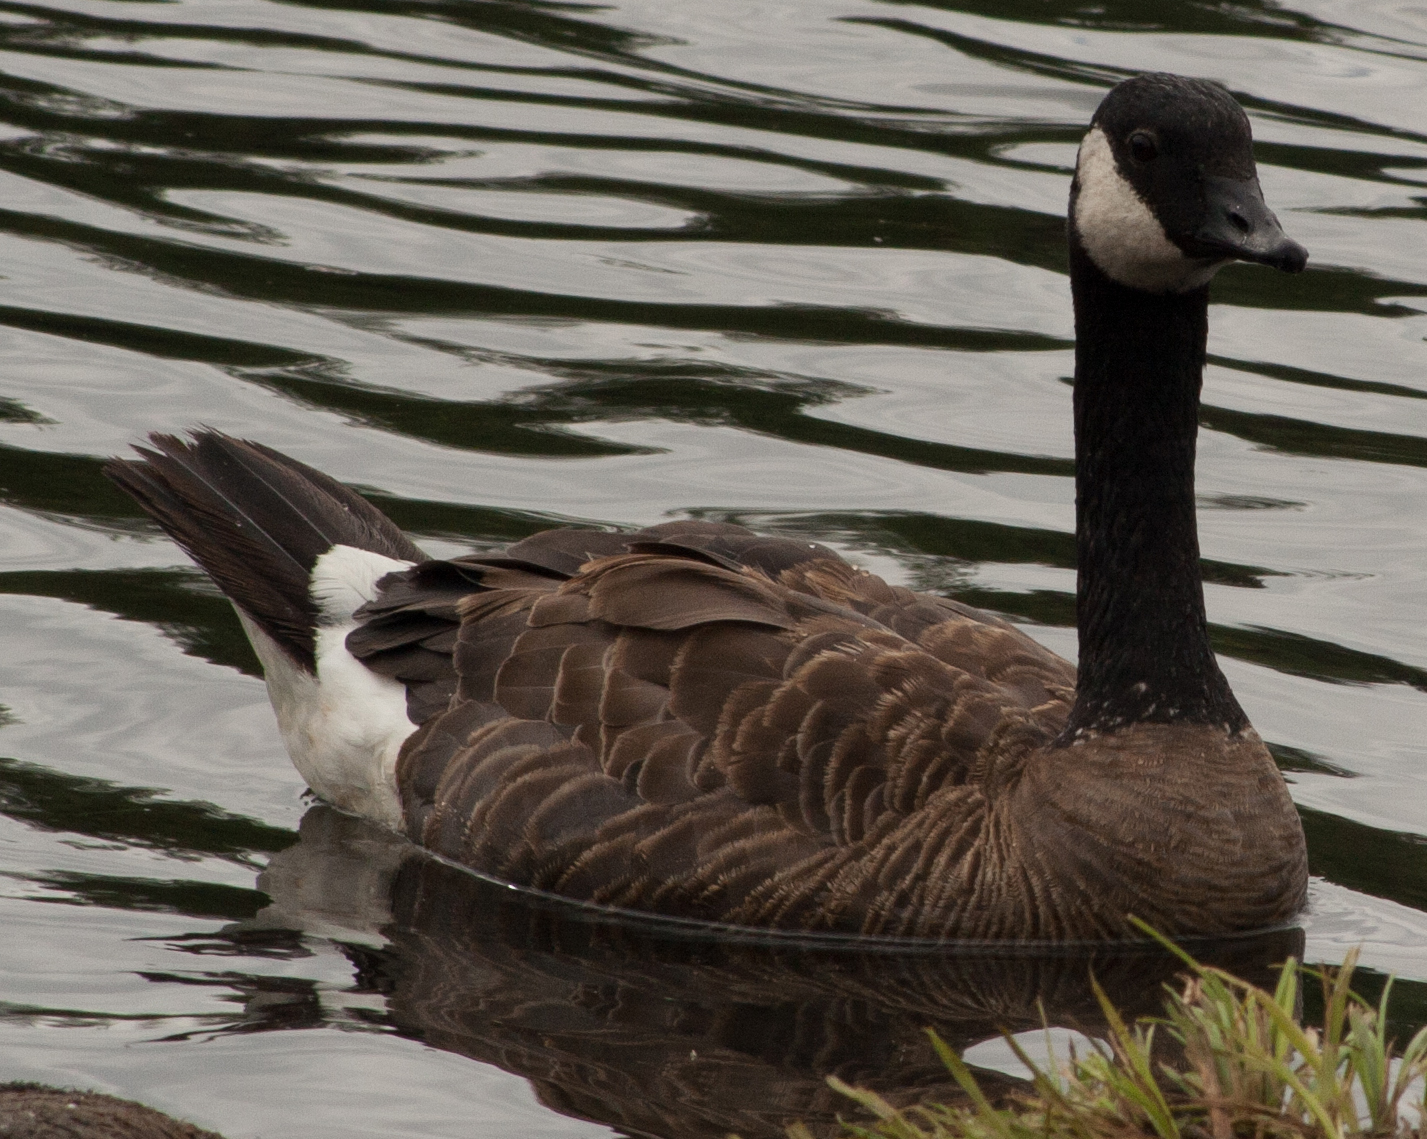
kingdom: Animalia
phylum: Chordata
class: Aves
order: Anseriformes
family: Anatidae
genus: Branta
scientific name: Branta canadensis
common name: Canada goose
